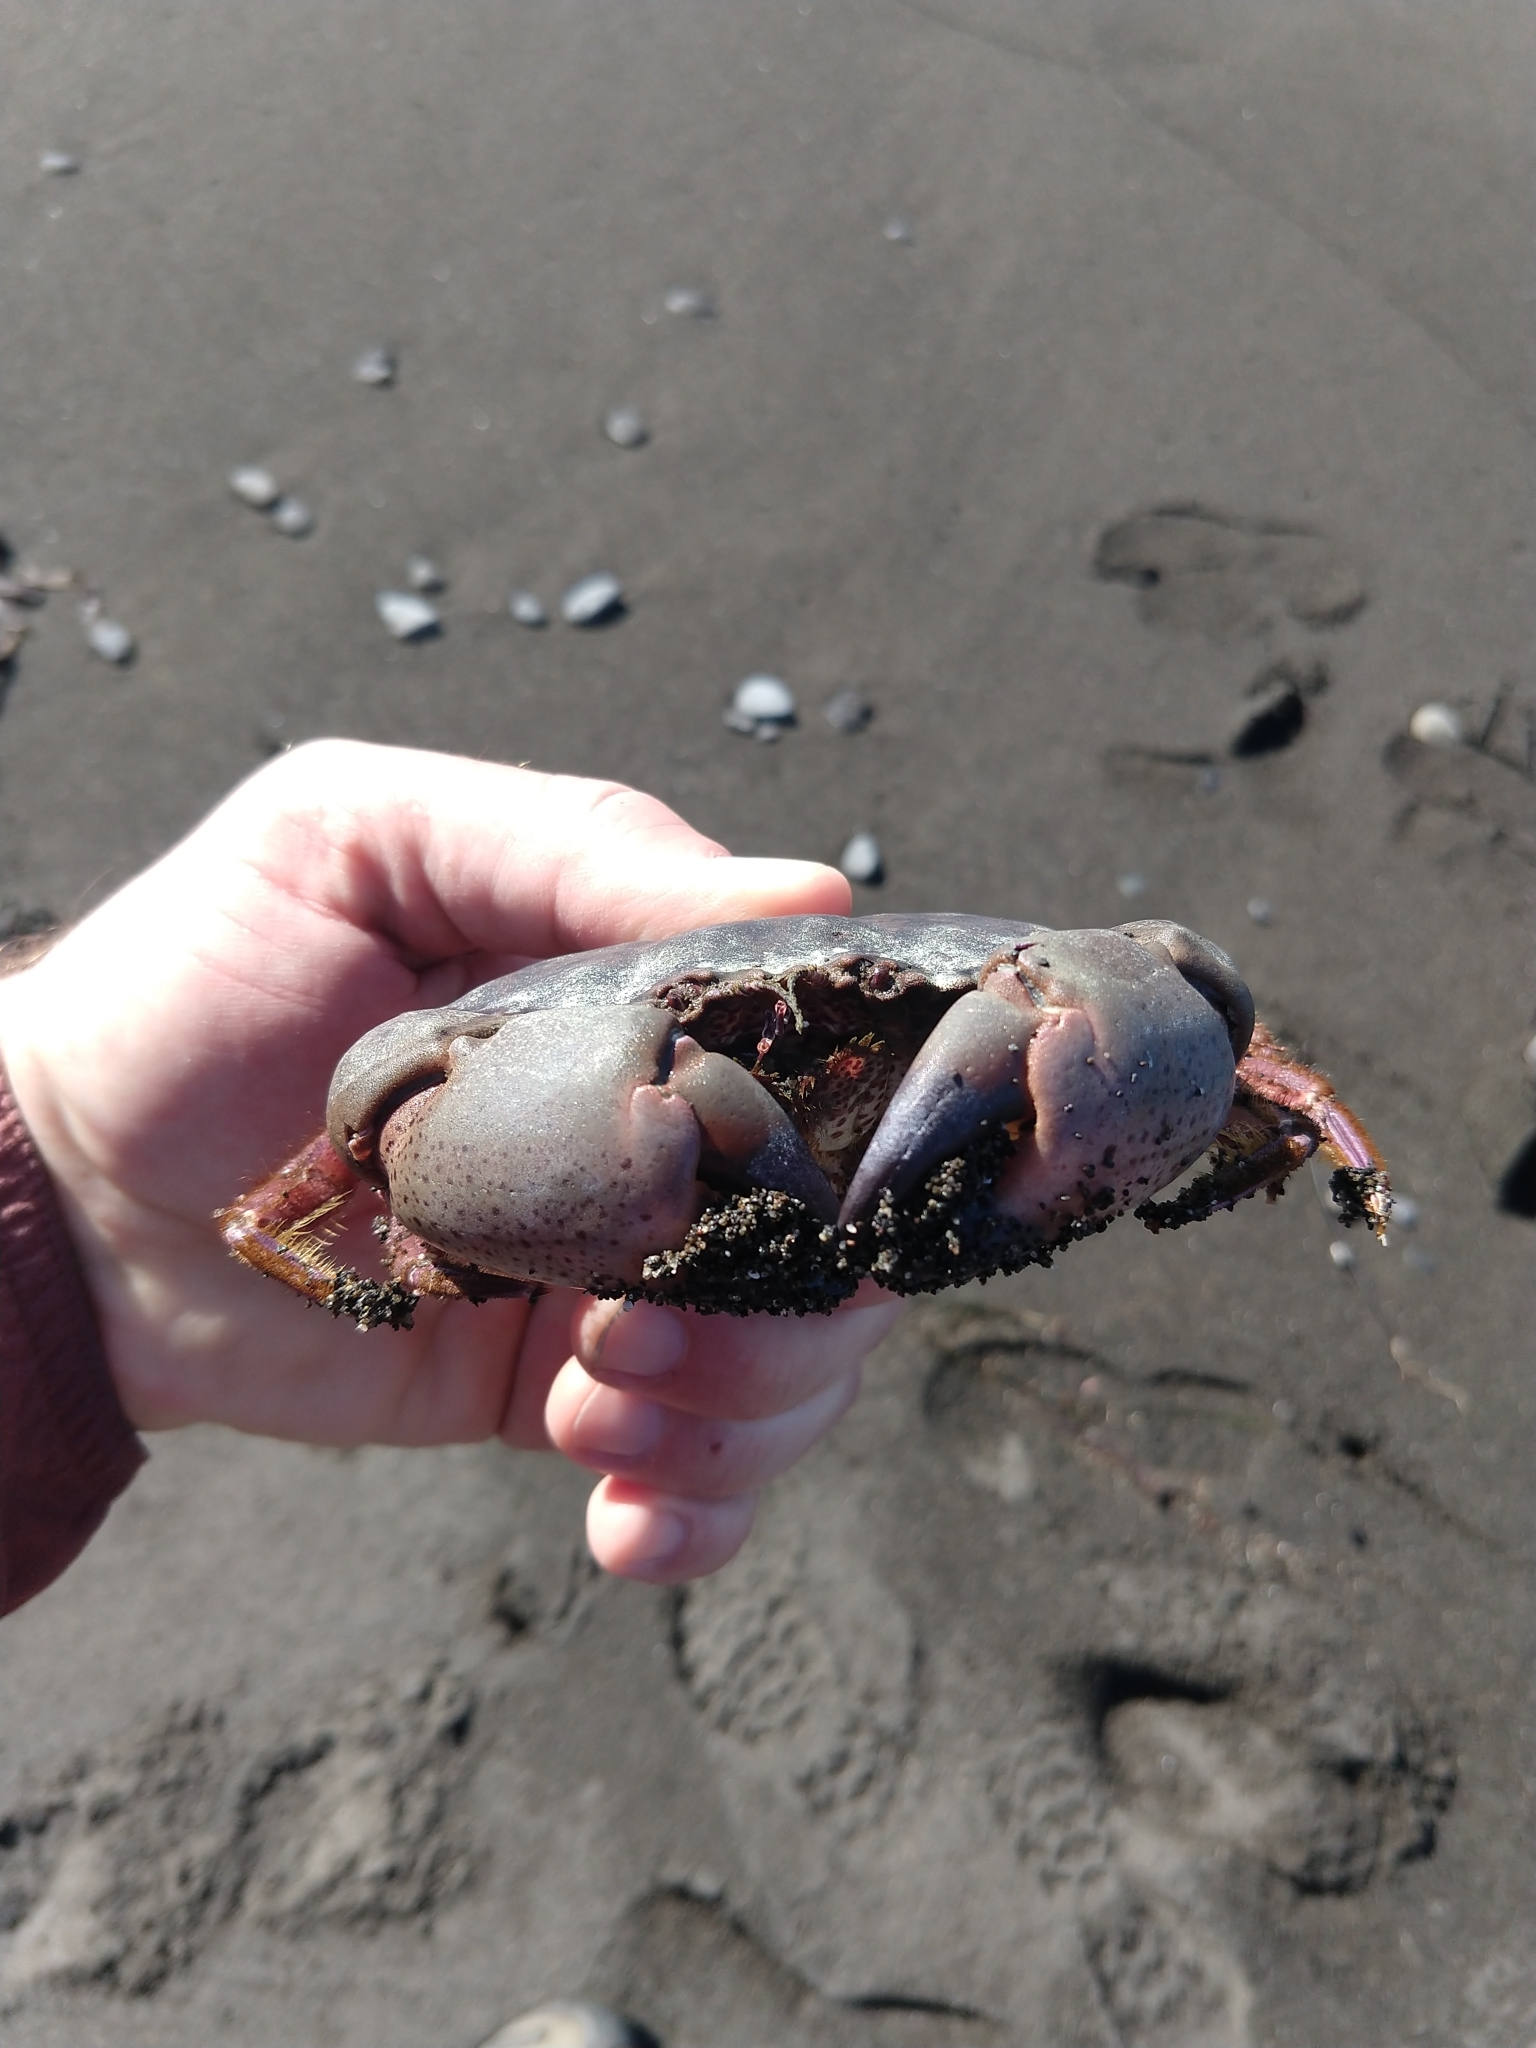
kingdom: Animalia
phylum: Arthropoda
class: Malacostraca
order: Decapoda
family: Cancridae
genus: Romaleon
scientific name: Romaleon antennarium
